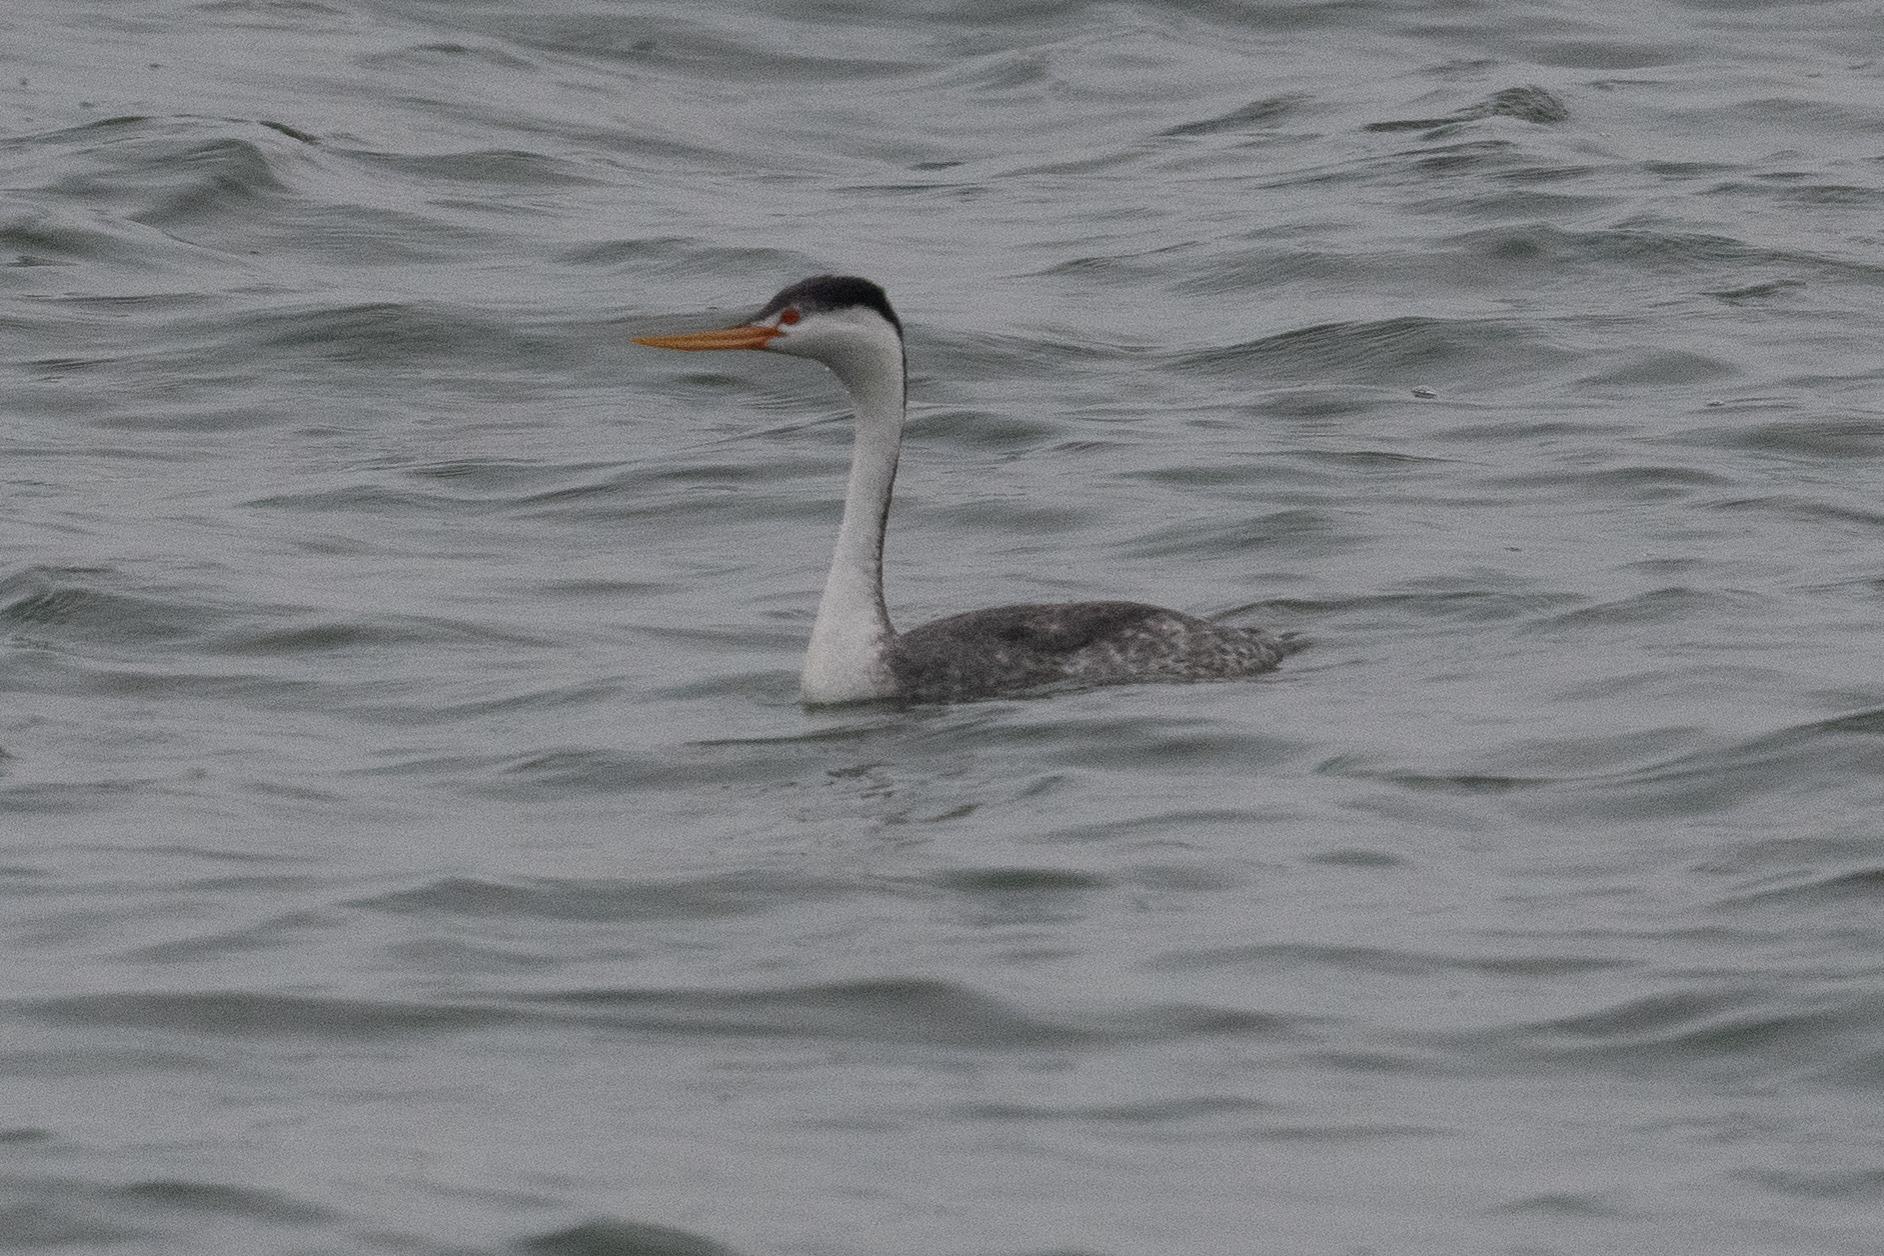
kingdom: Animalia
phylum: Chordata
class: Aves
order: Podicipediformes
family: Podicipedidae
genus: Aechmophorus
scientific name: Aechmophorus clarkii
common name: Clark's grebe
